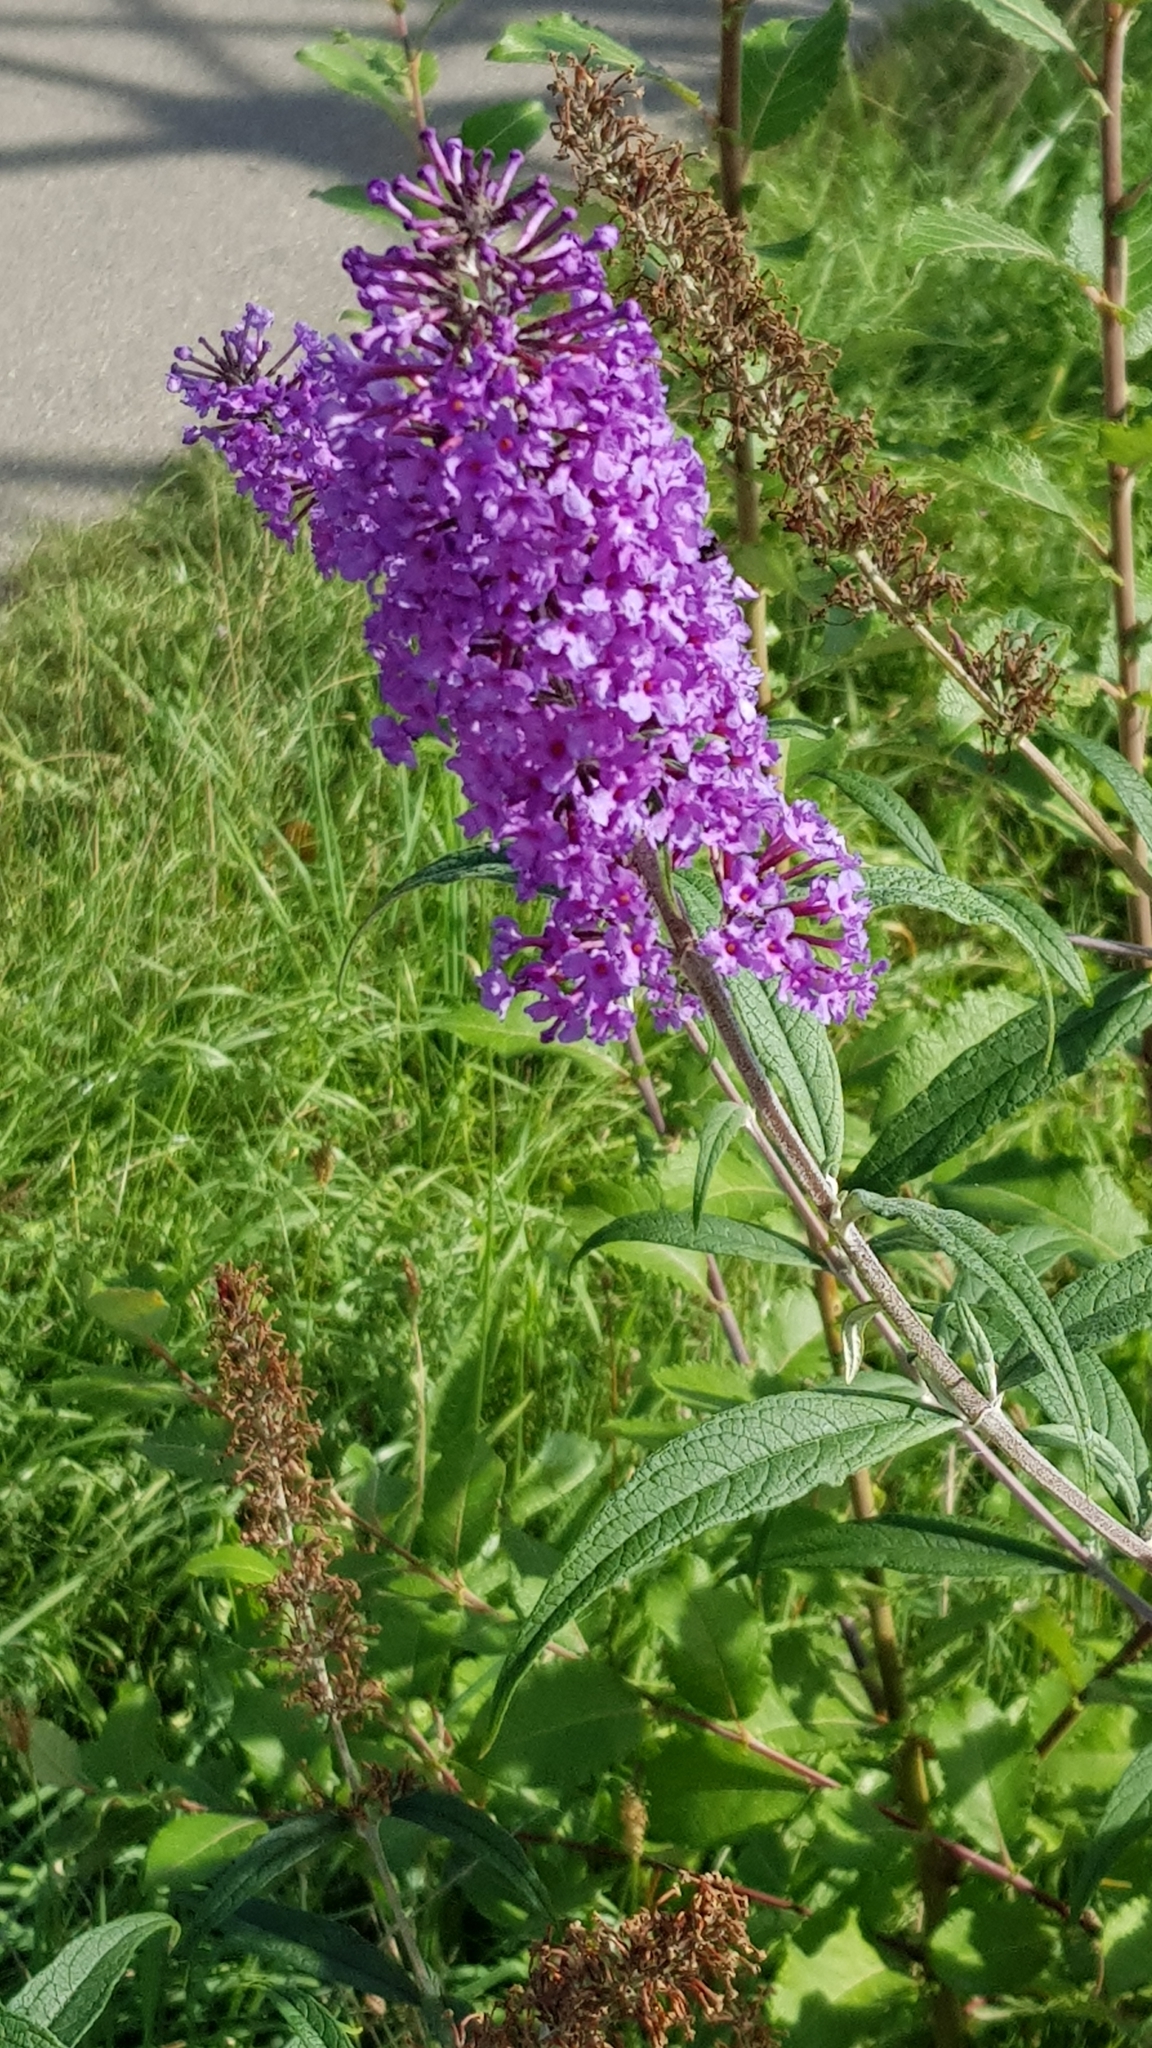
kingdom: Plantae
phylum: Tracheophyta
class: Magnoliopsida
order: Lamiales
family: Scrophulariaceae
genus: Buddleja
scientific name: Buddleja davidii
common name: Butterfly-bush
